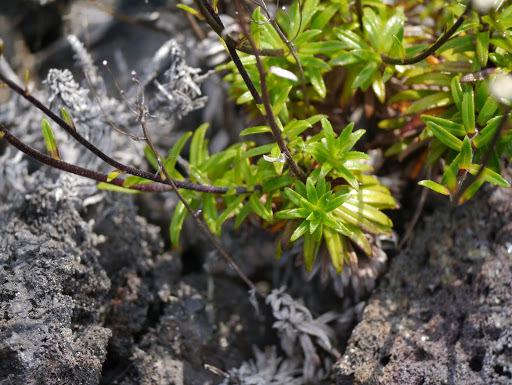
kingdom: Plantae
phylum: Tracheophyta
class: Magnoliopsida
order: Asterales
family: Asteraceae
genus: Dubautia
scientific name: Dubautia scabra
